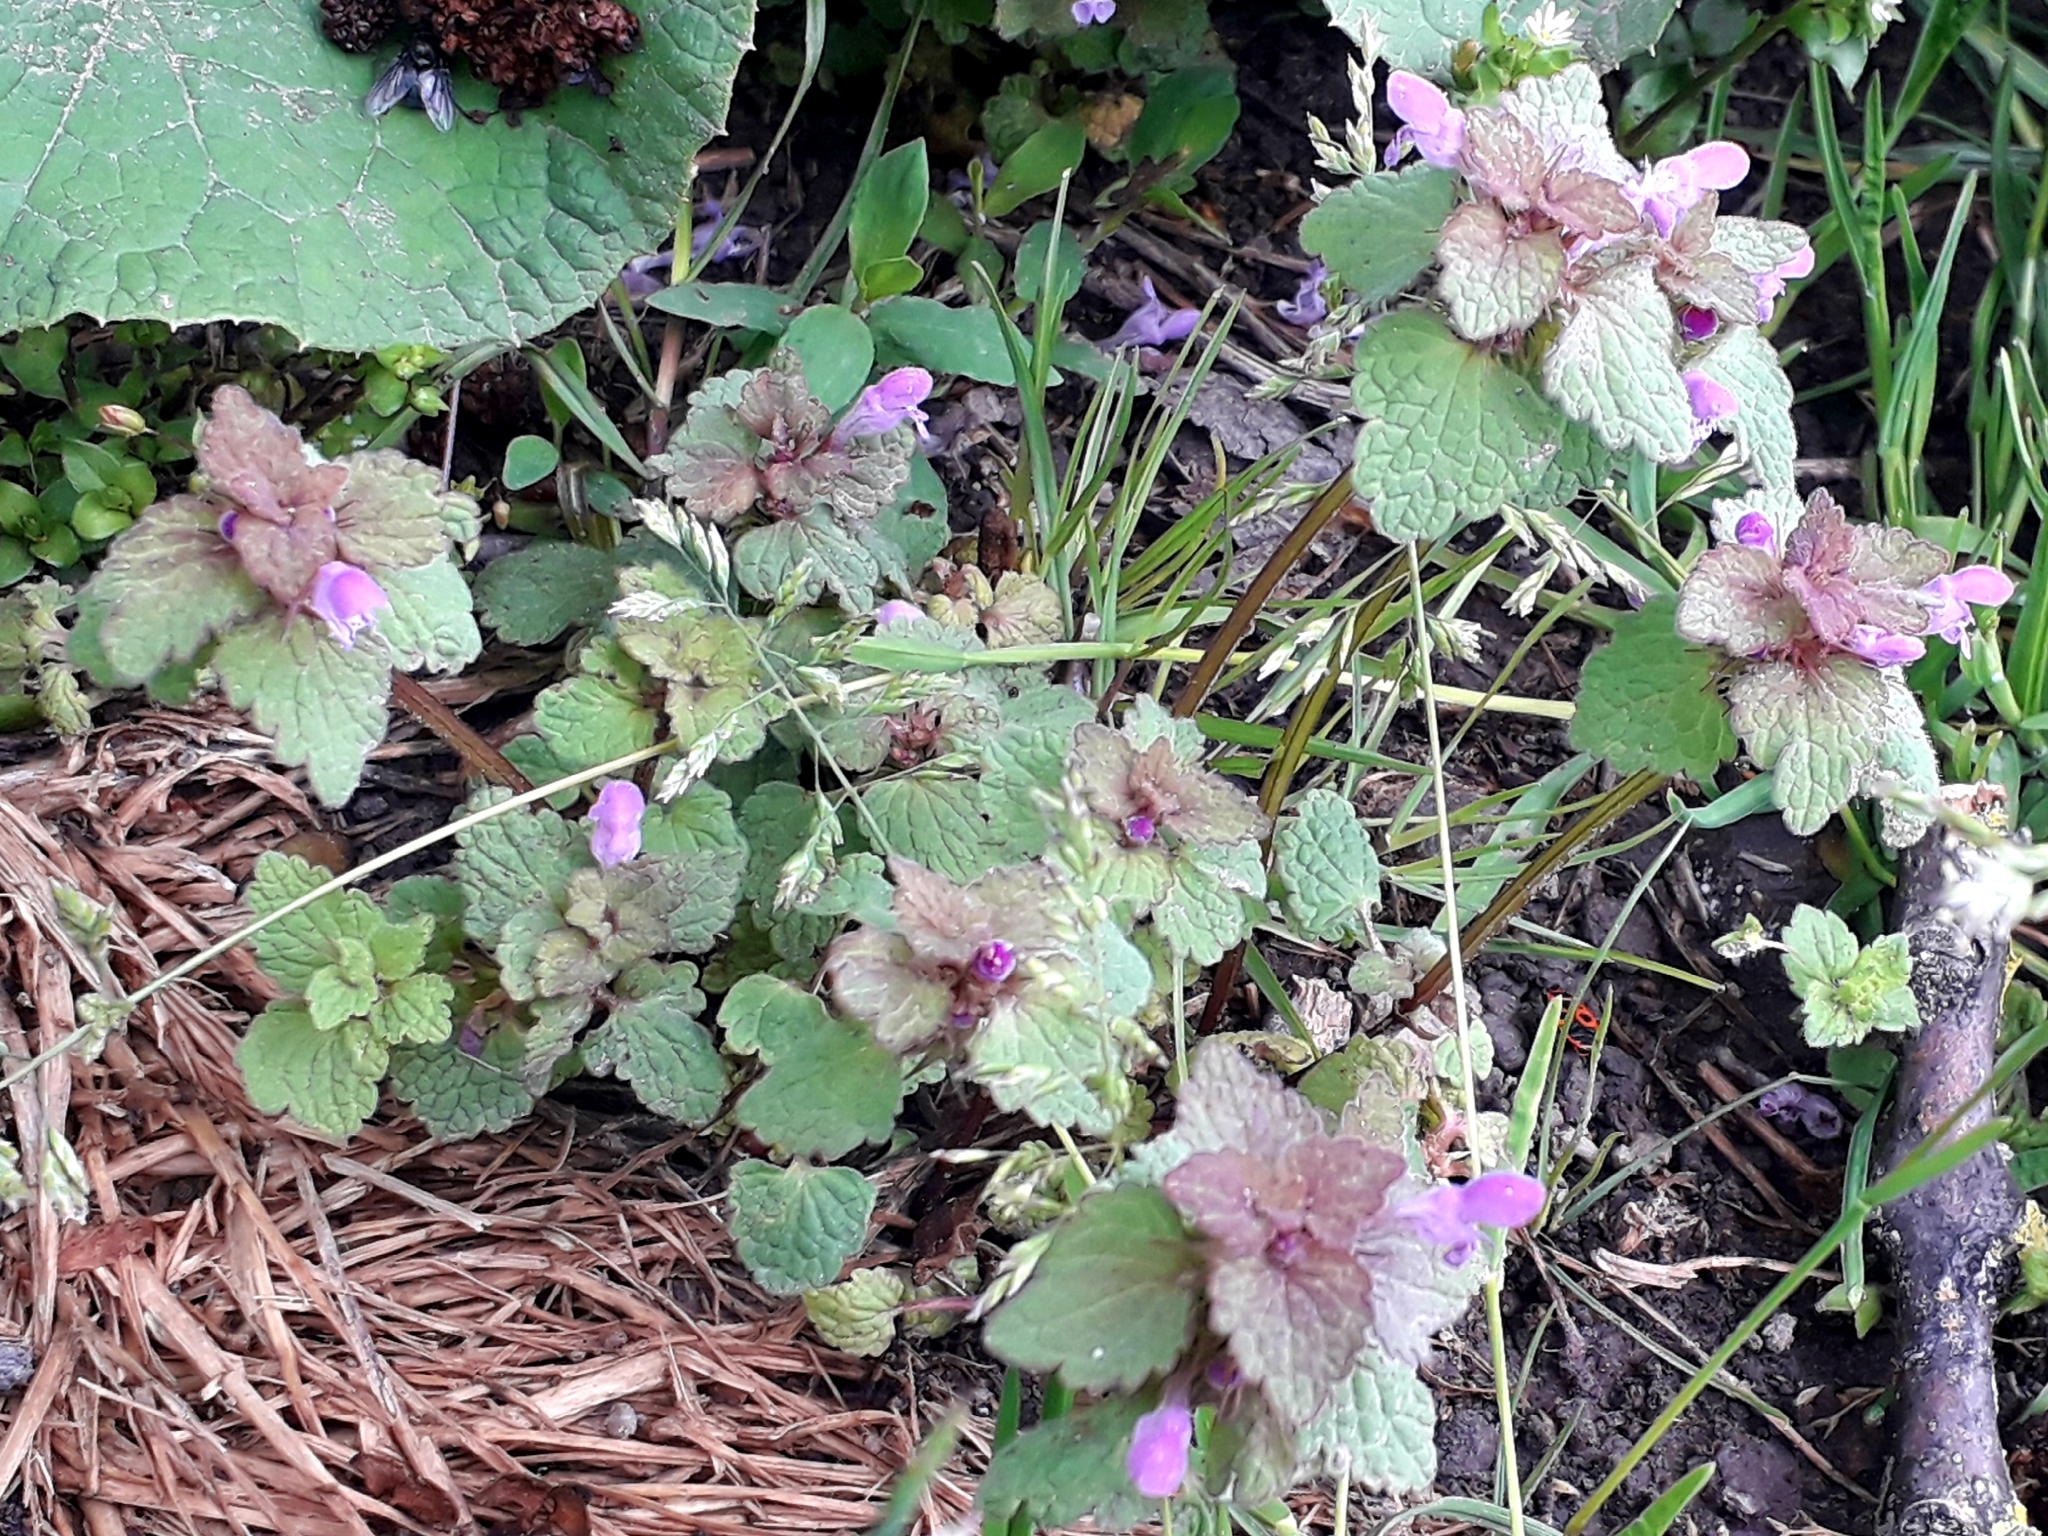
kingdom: Plantae
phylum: Tracheophyta
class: Magnoliopsida
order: Lamiales
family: Lamiaceae
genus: Lamium
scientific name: Lamium purpureum
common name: Red dead-nettle
